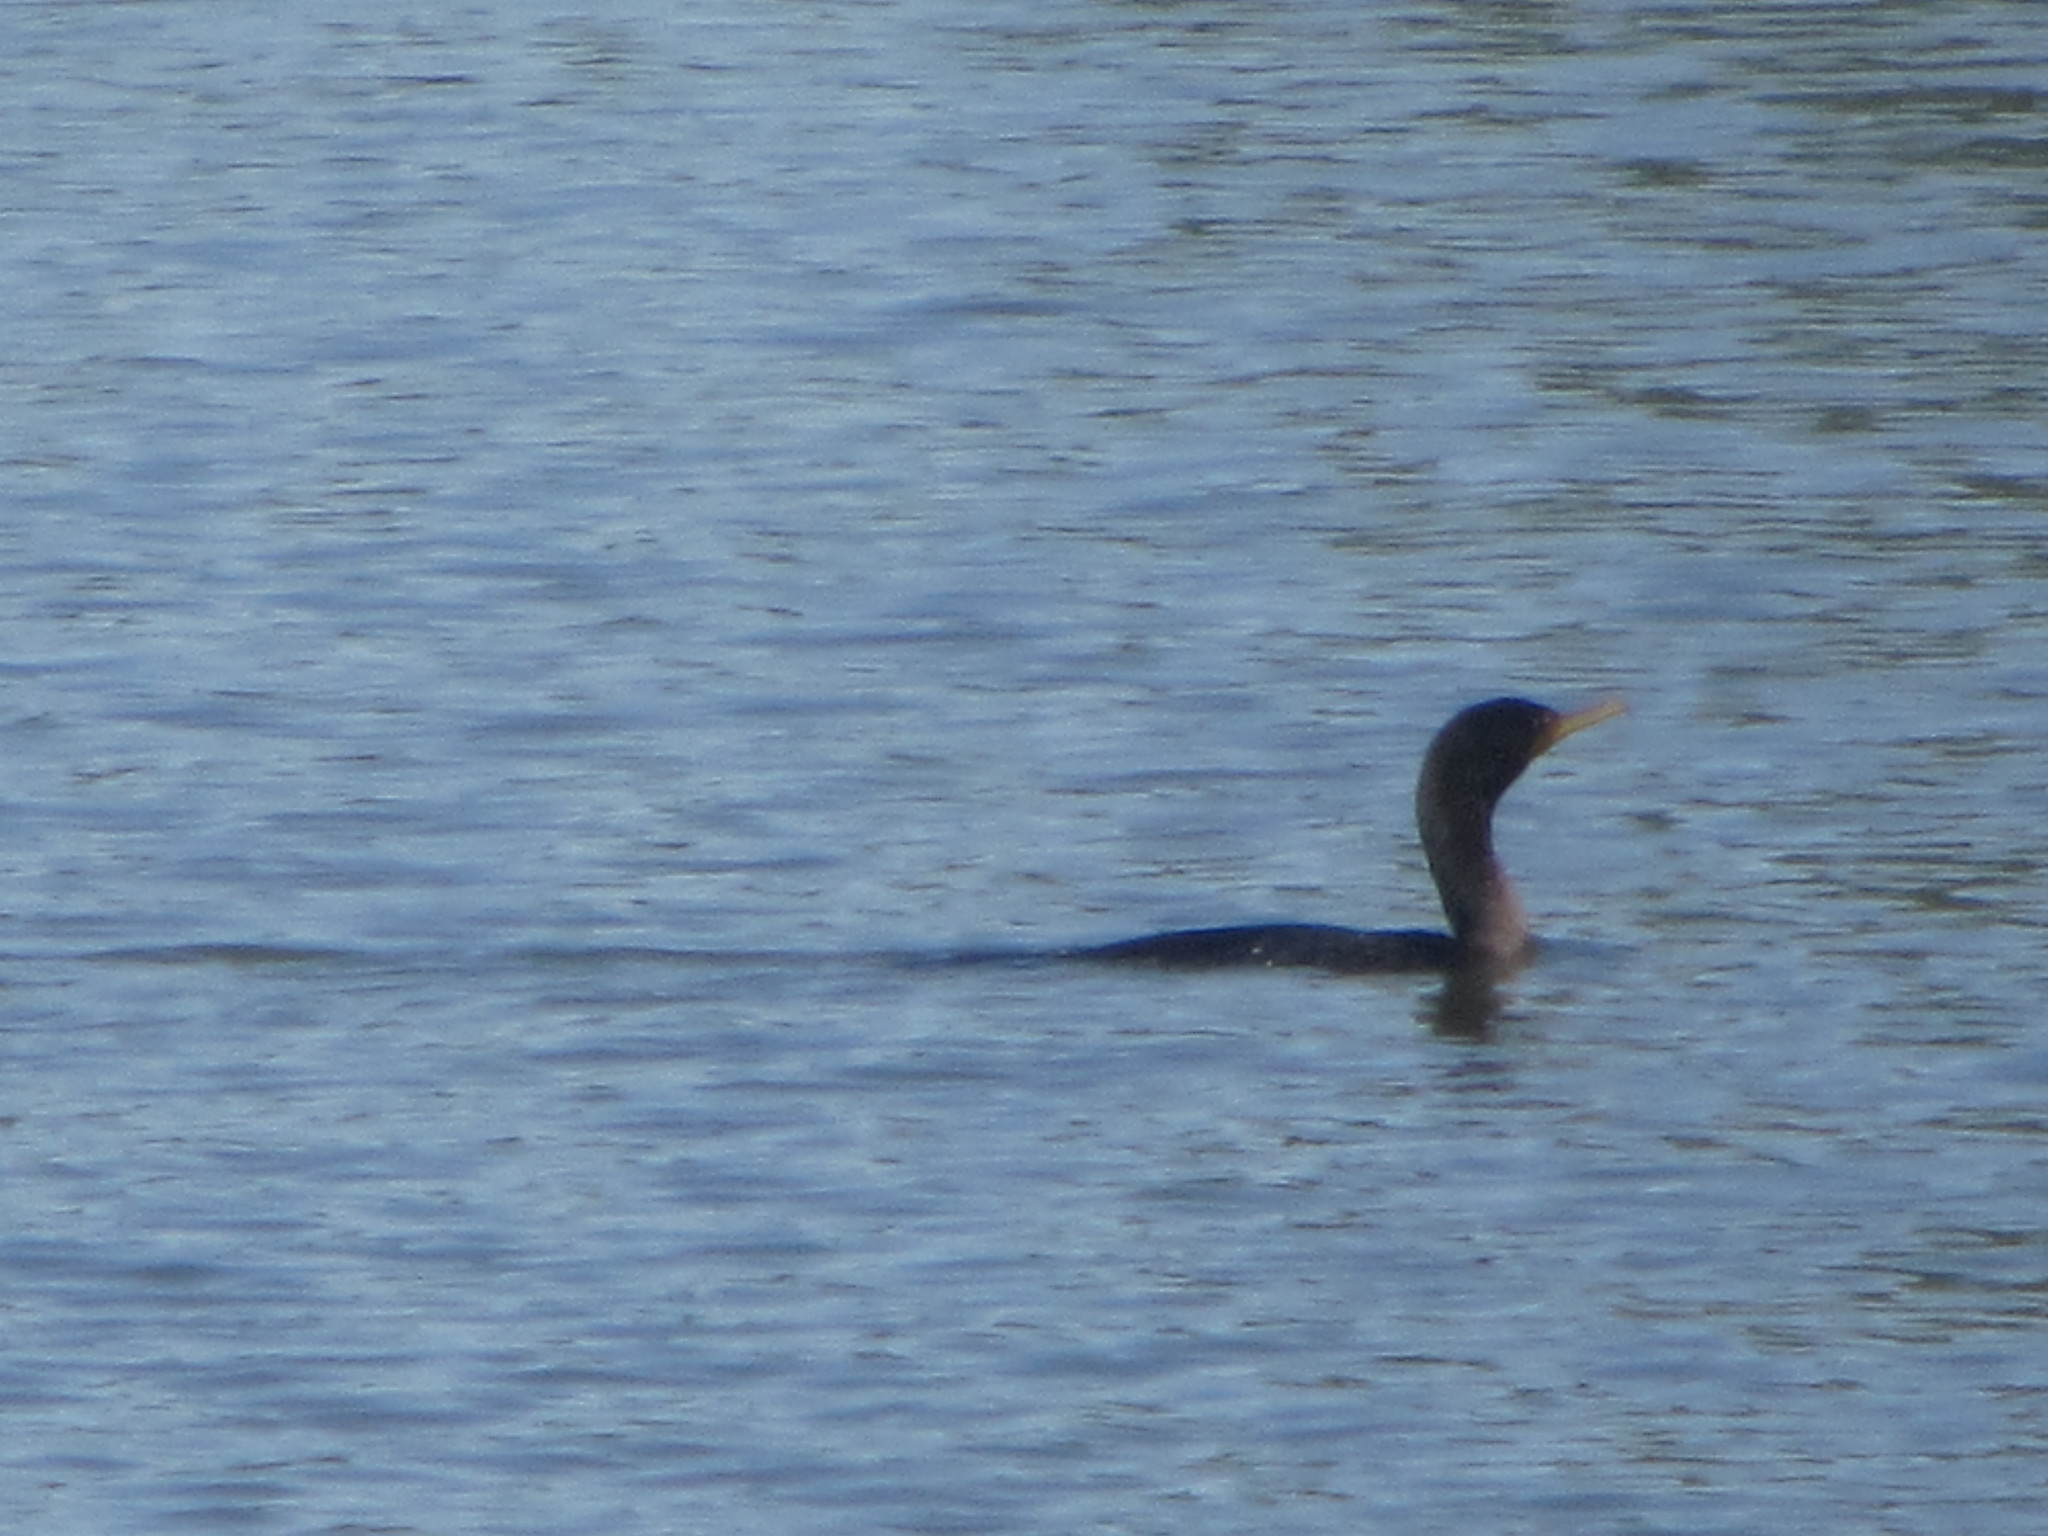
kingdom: Animalia
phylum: Chordata
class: Aves
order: Suliformes
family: Phalacrocoracidae
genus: Phalacrocorax
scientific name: Phalacrocorax auritus
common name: Double-crested cormorant
